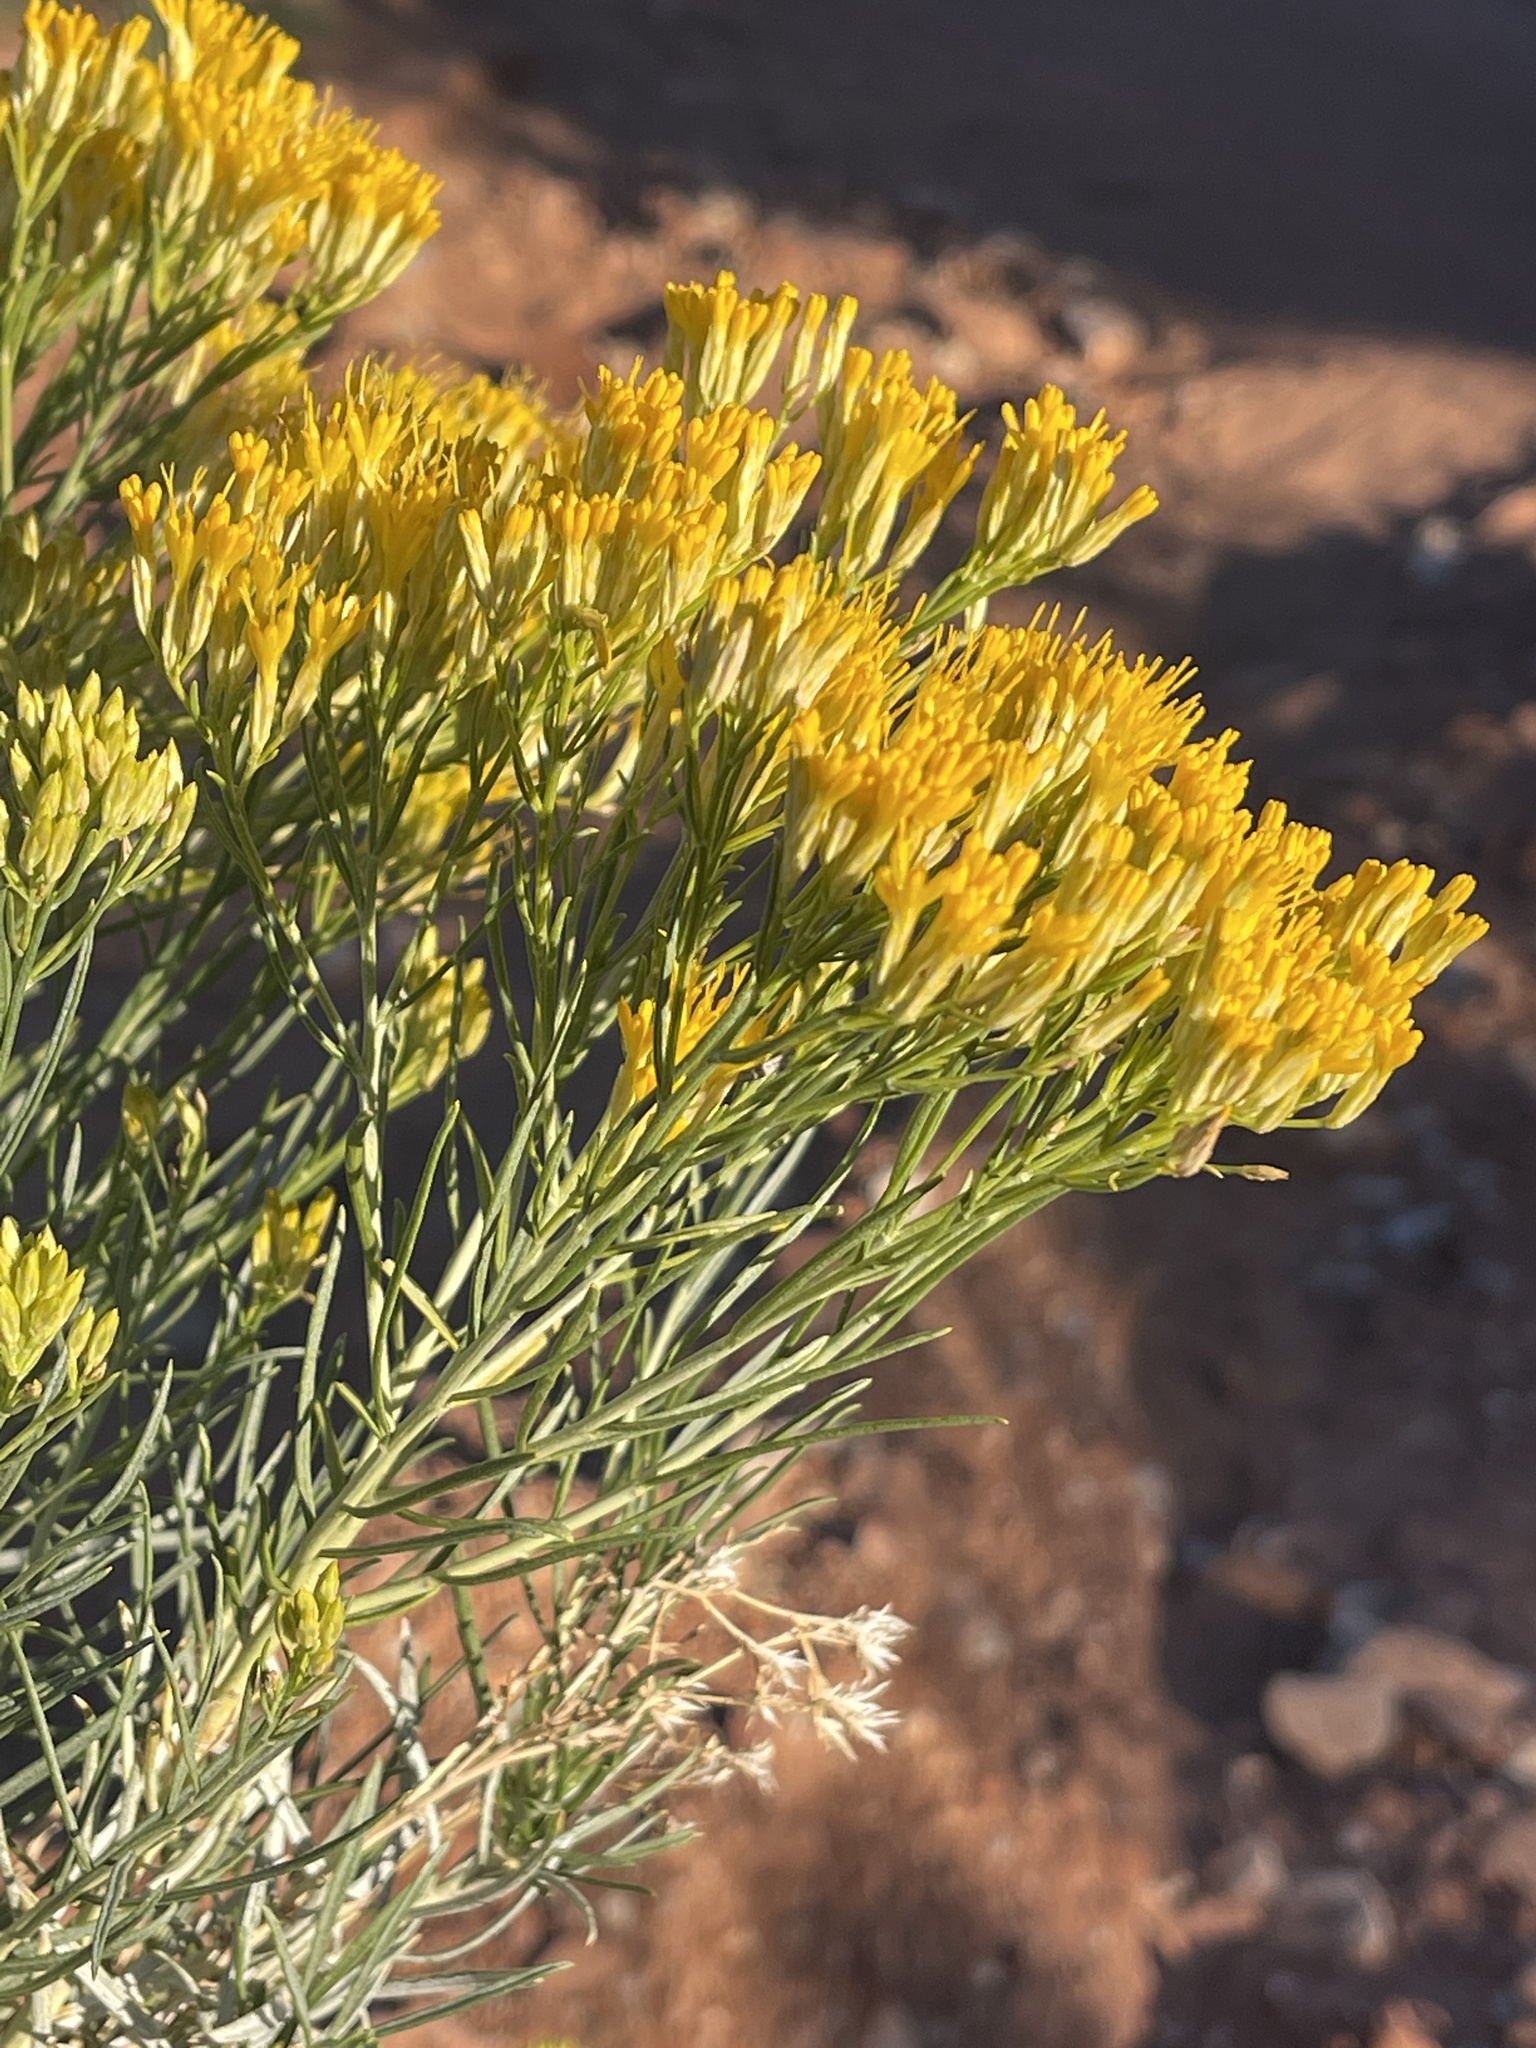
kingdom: Plantae
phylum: Tracheophyta
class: Magnoliopsida
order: Asterales
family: Asteraceae
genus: Ericameria
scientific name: Ericameria nauseosa
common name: Rubber rabbitbrush
